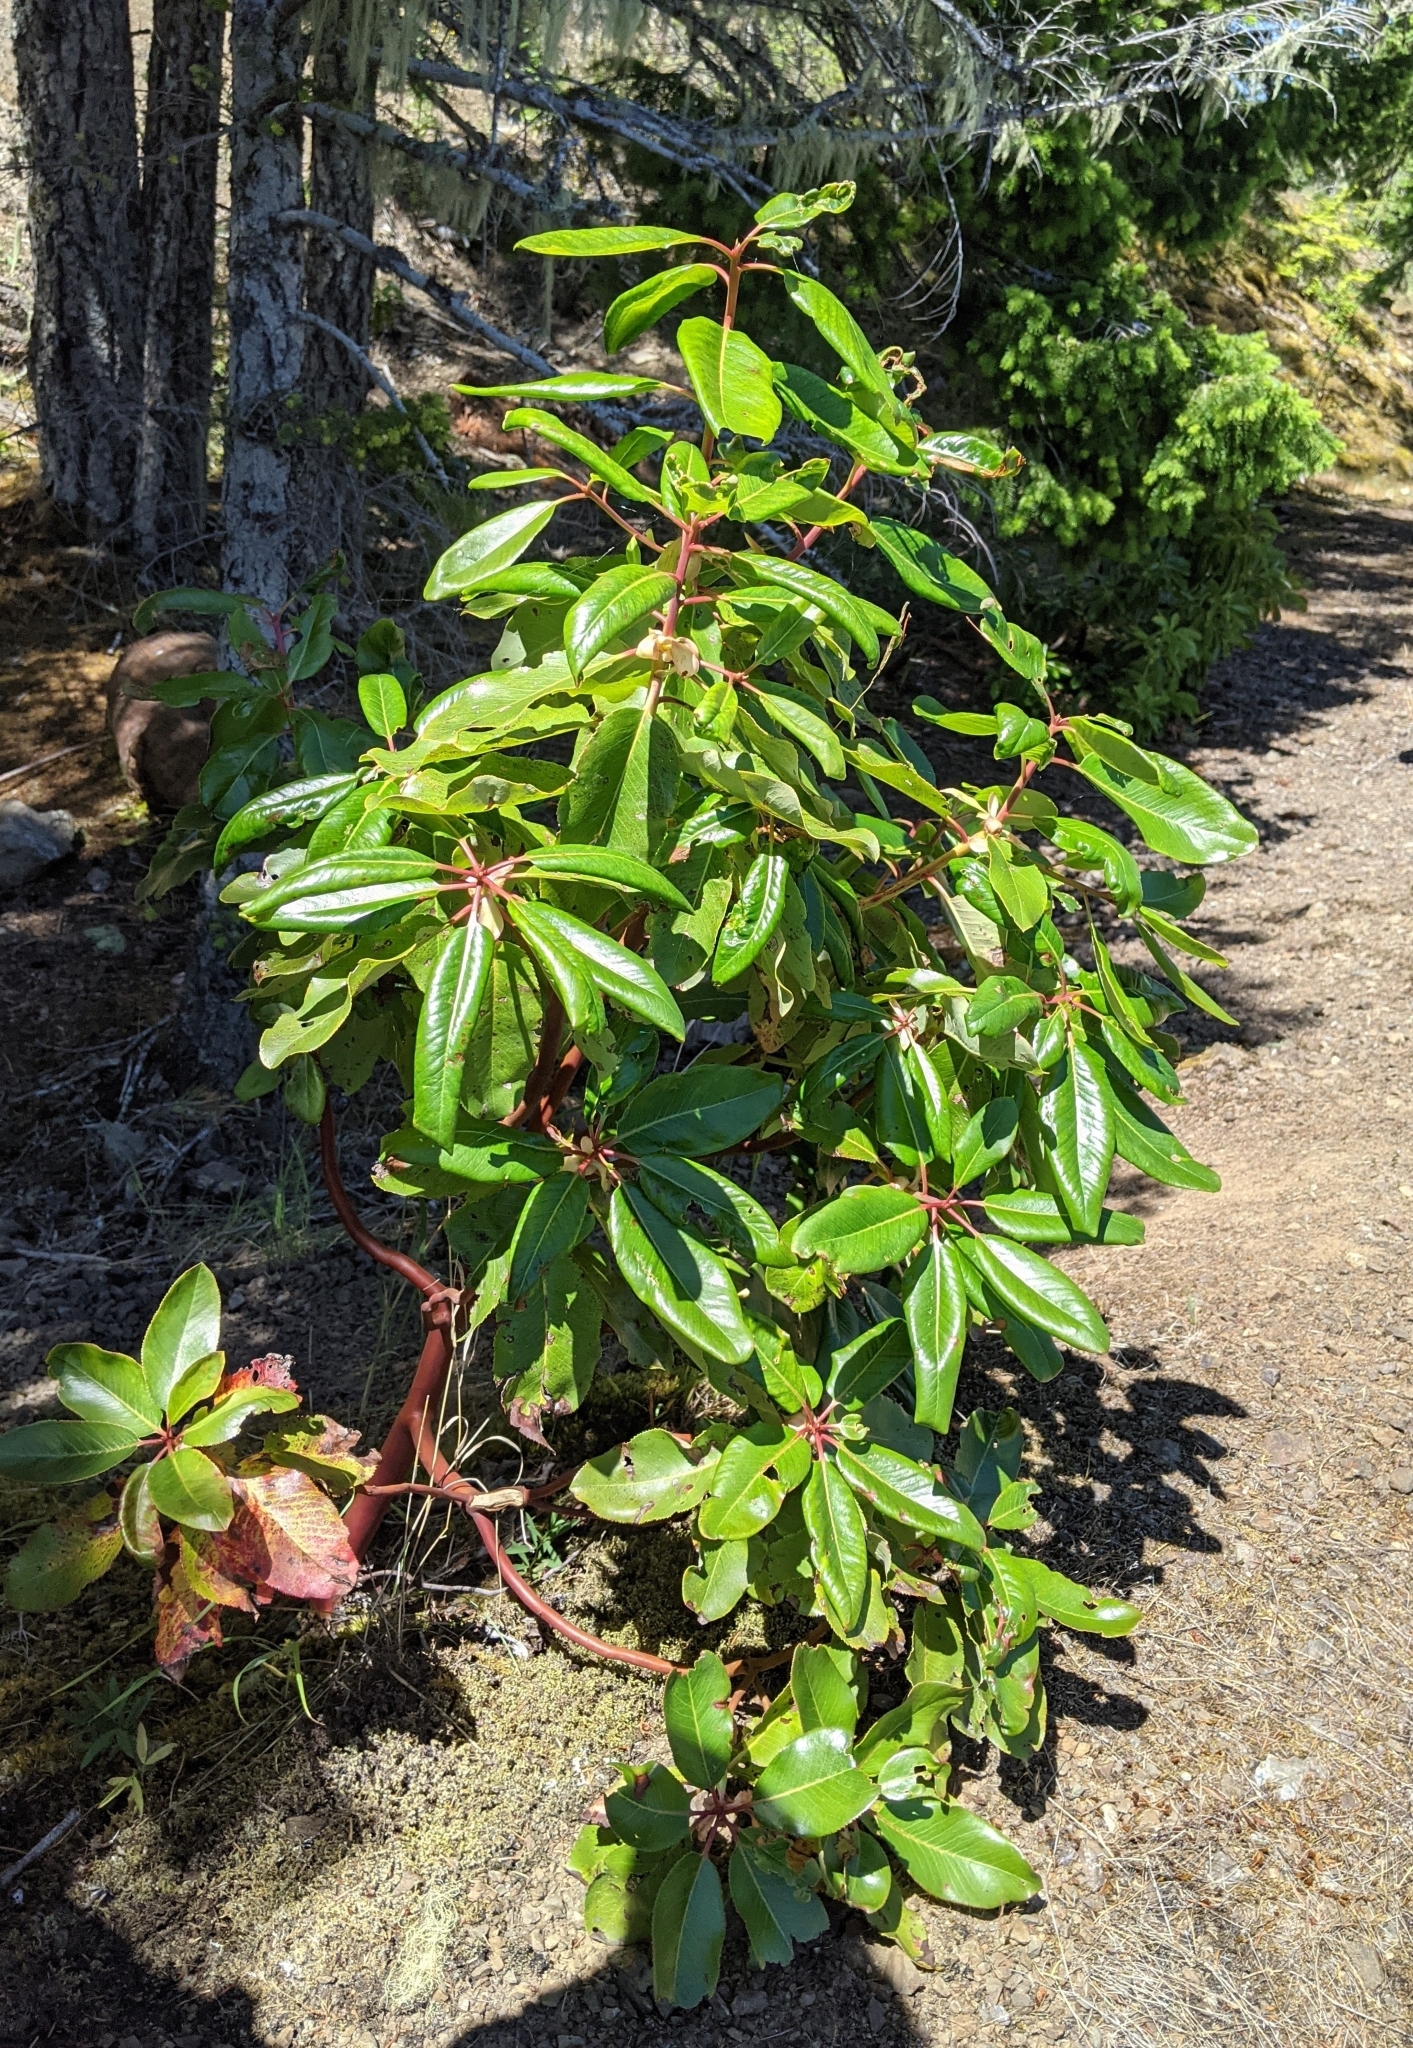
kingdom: Plantae
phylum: Tracheophyta
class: Magnoliopsida
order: Ericales
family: Ericaceae
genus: Arbutus
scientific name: Arbutus menziesii
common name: Pacific madrone
